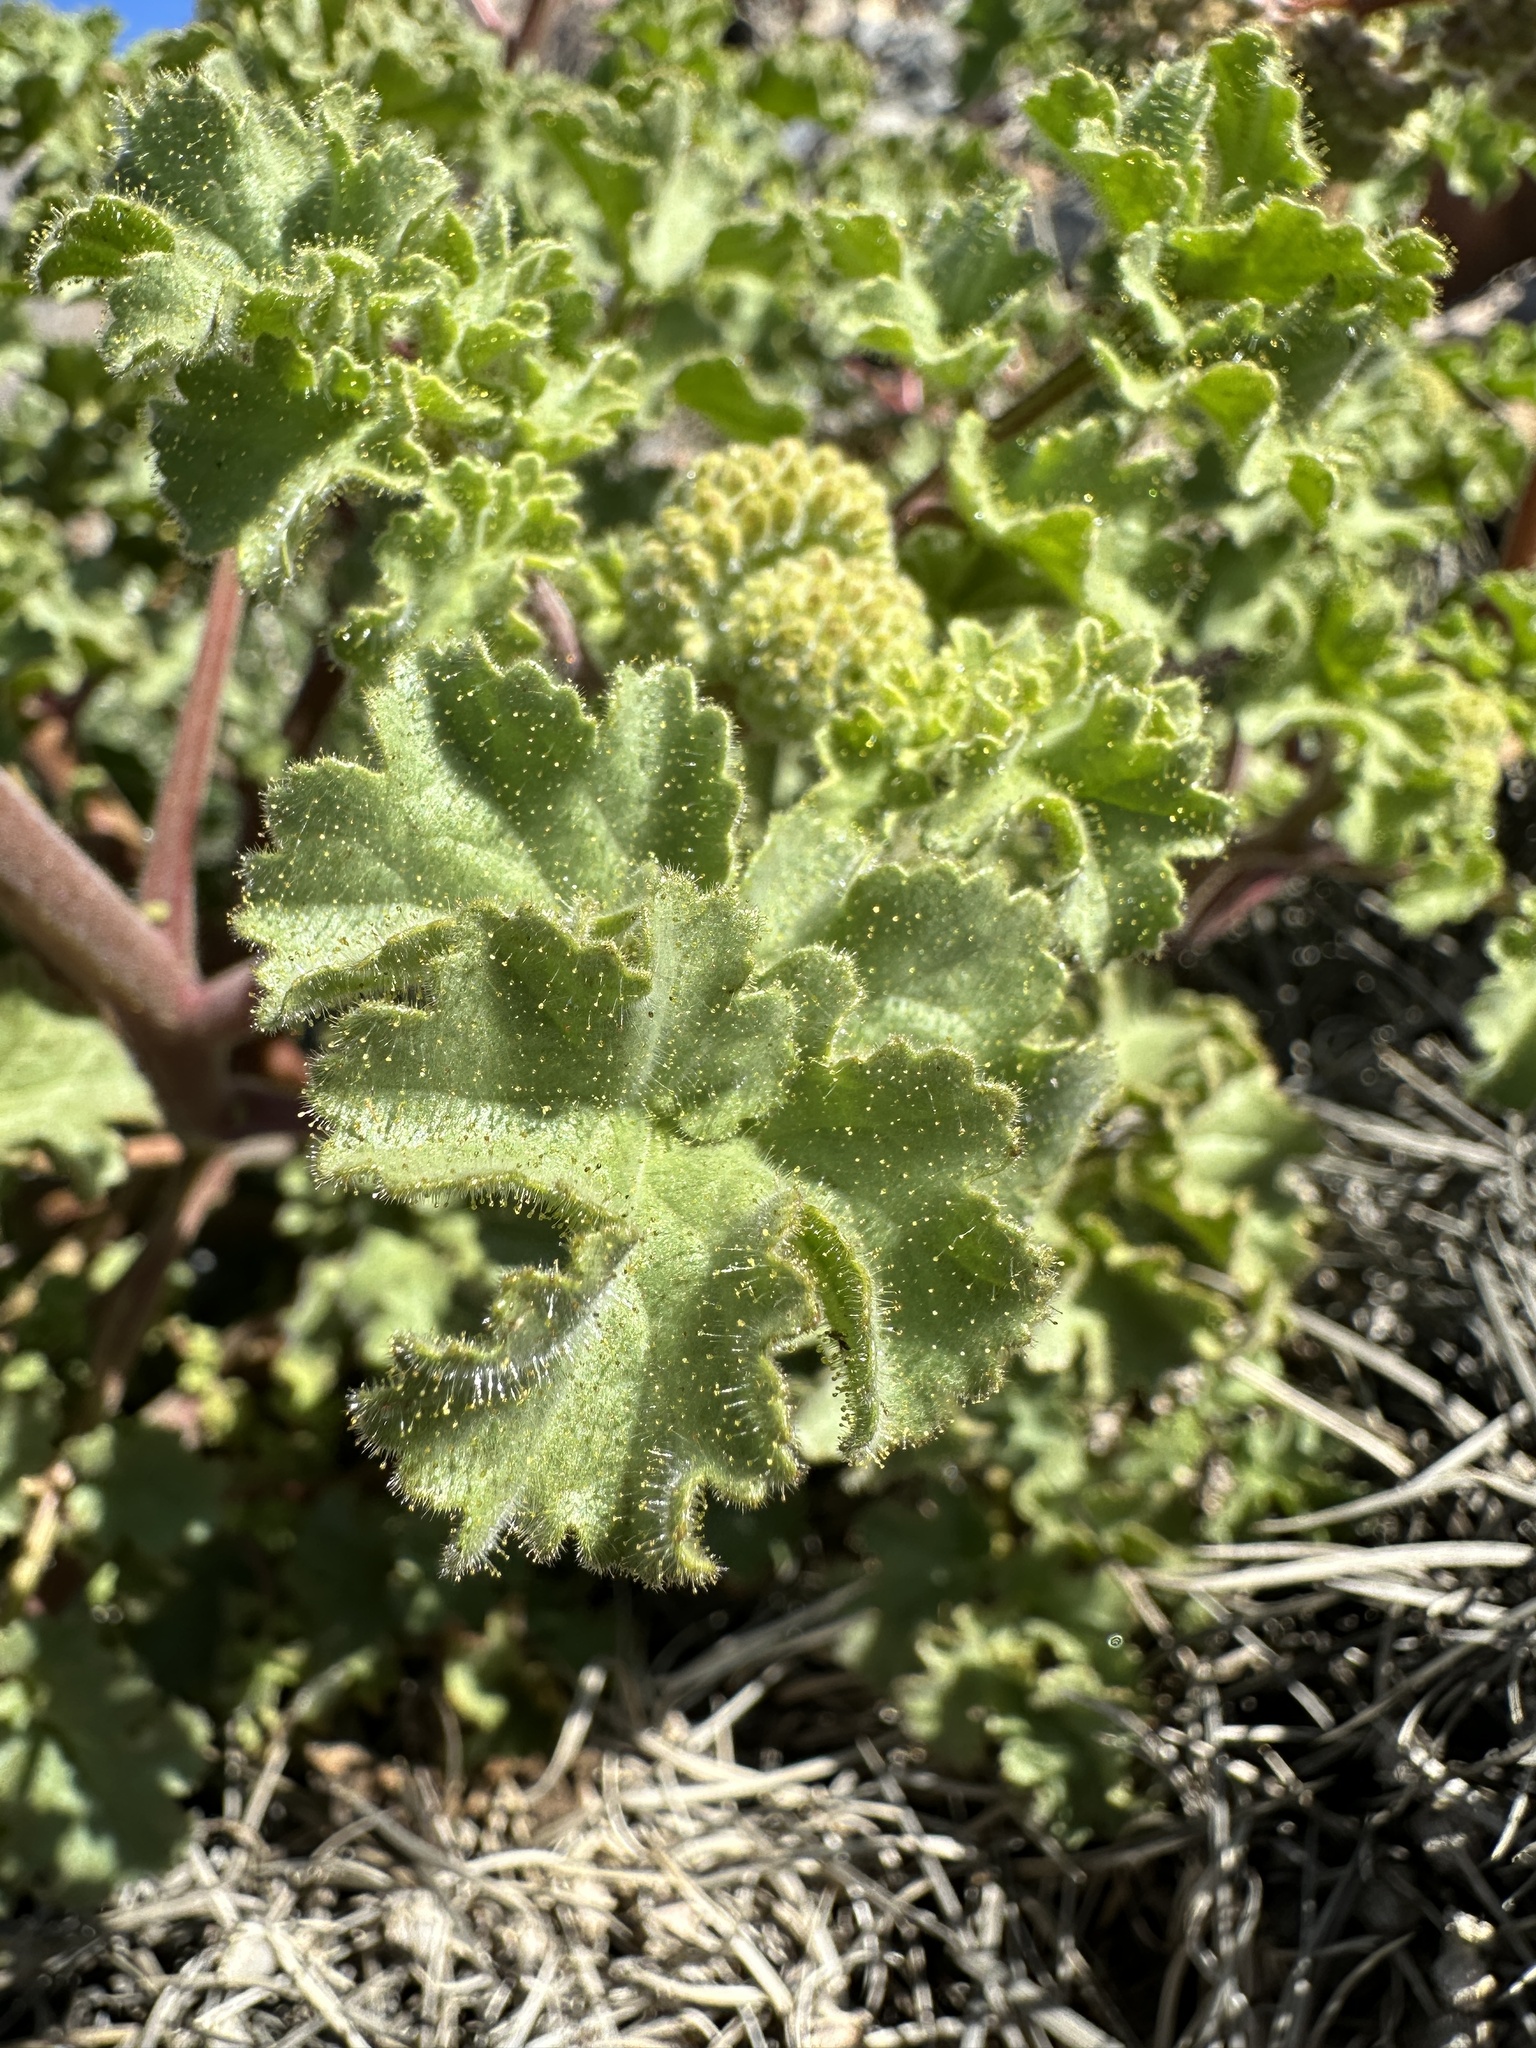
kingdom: Plantae
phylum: Tracheophyta
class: Magnoliopsida
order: Boraginales
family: Hydrophyllaceae
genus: Phacelia
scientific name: Phacelia pedicellata
